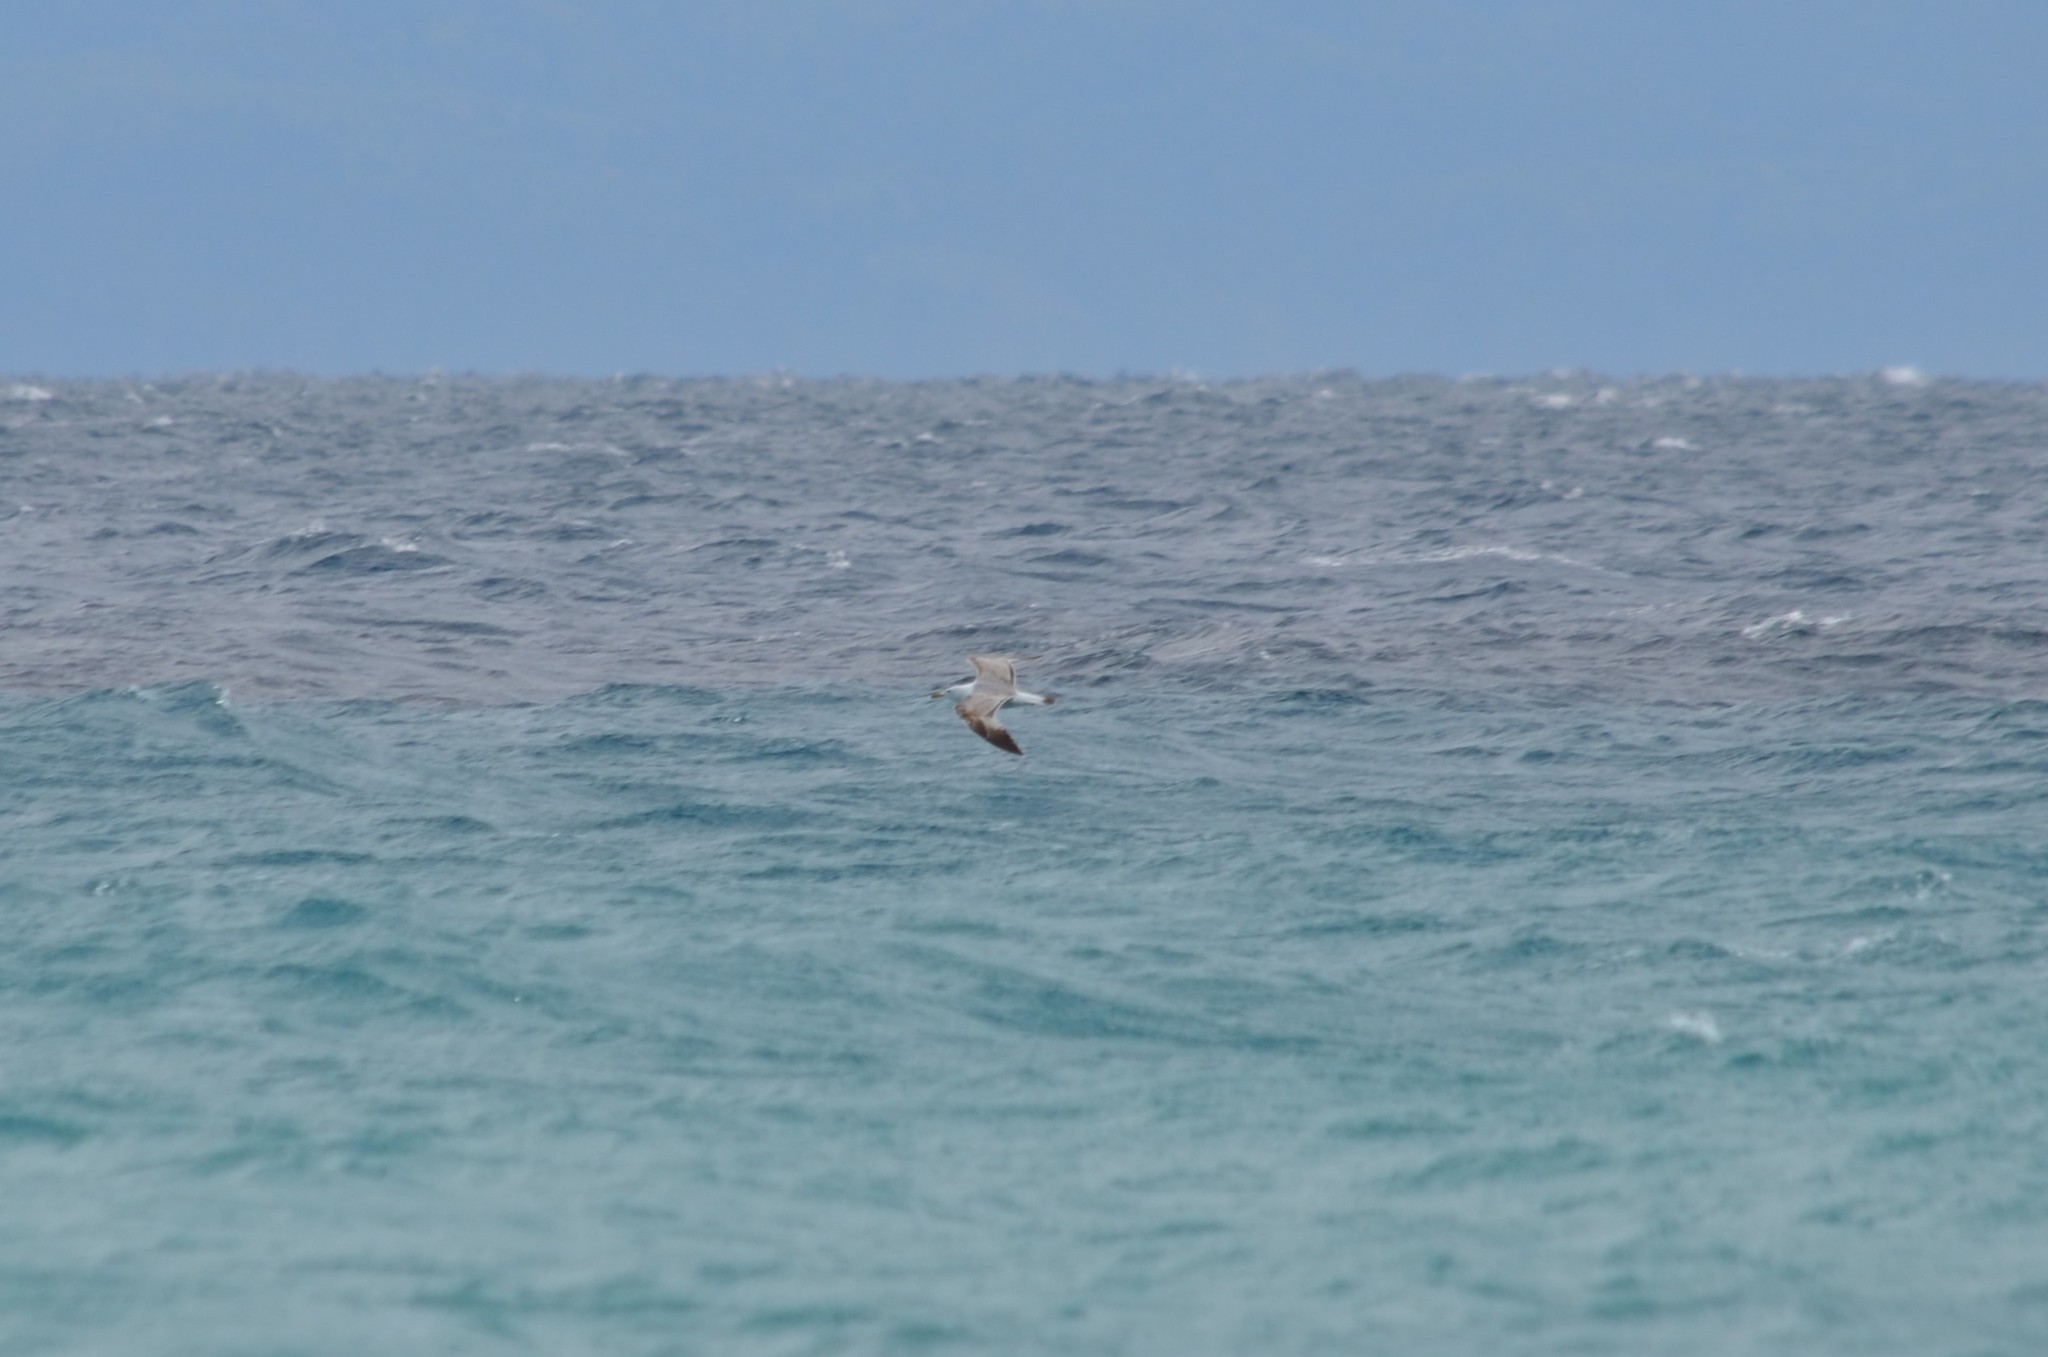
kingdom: Animalia
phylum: Chordata
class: Aves
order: Charadriiformes
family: Laridae
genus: Larus
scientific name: Larus michahellis
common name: Yellow-legged gull
